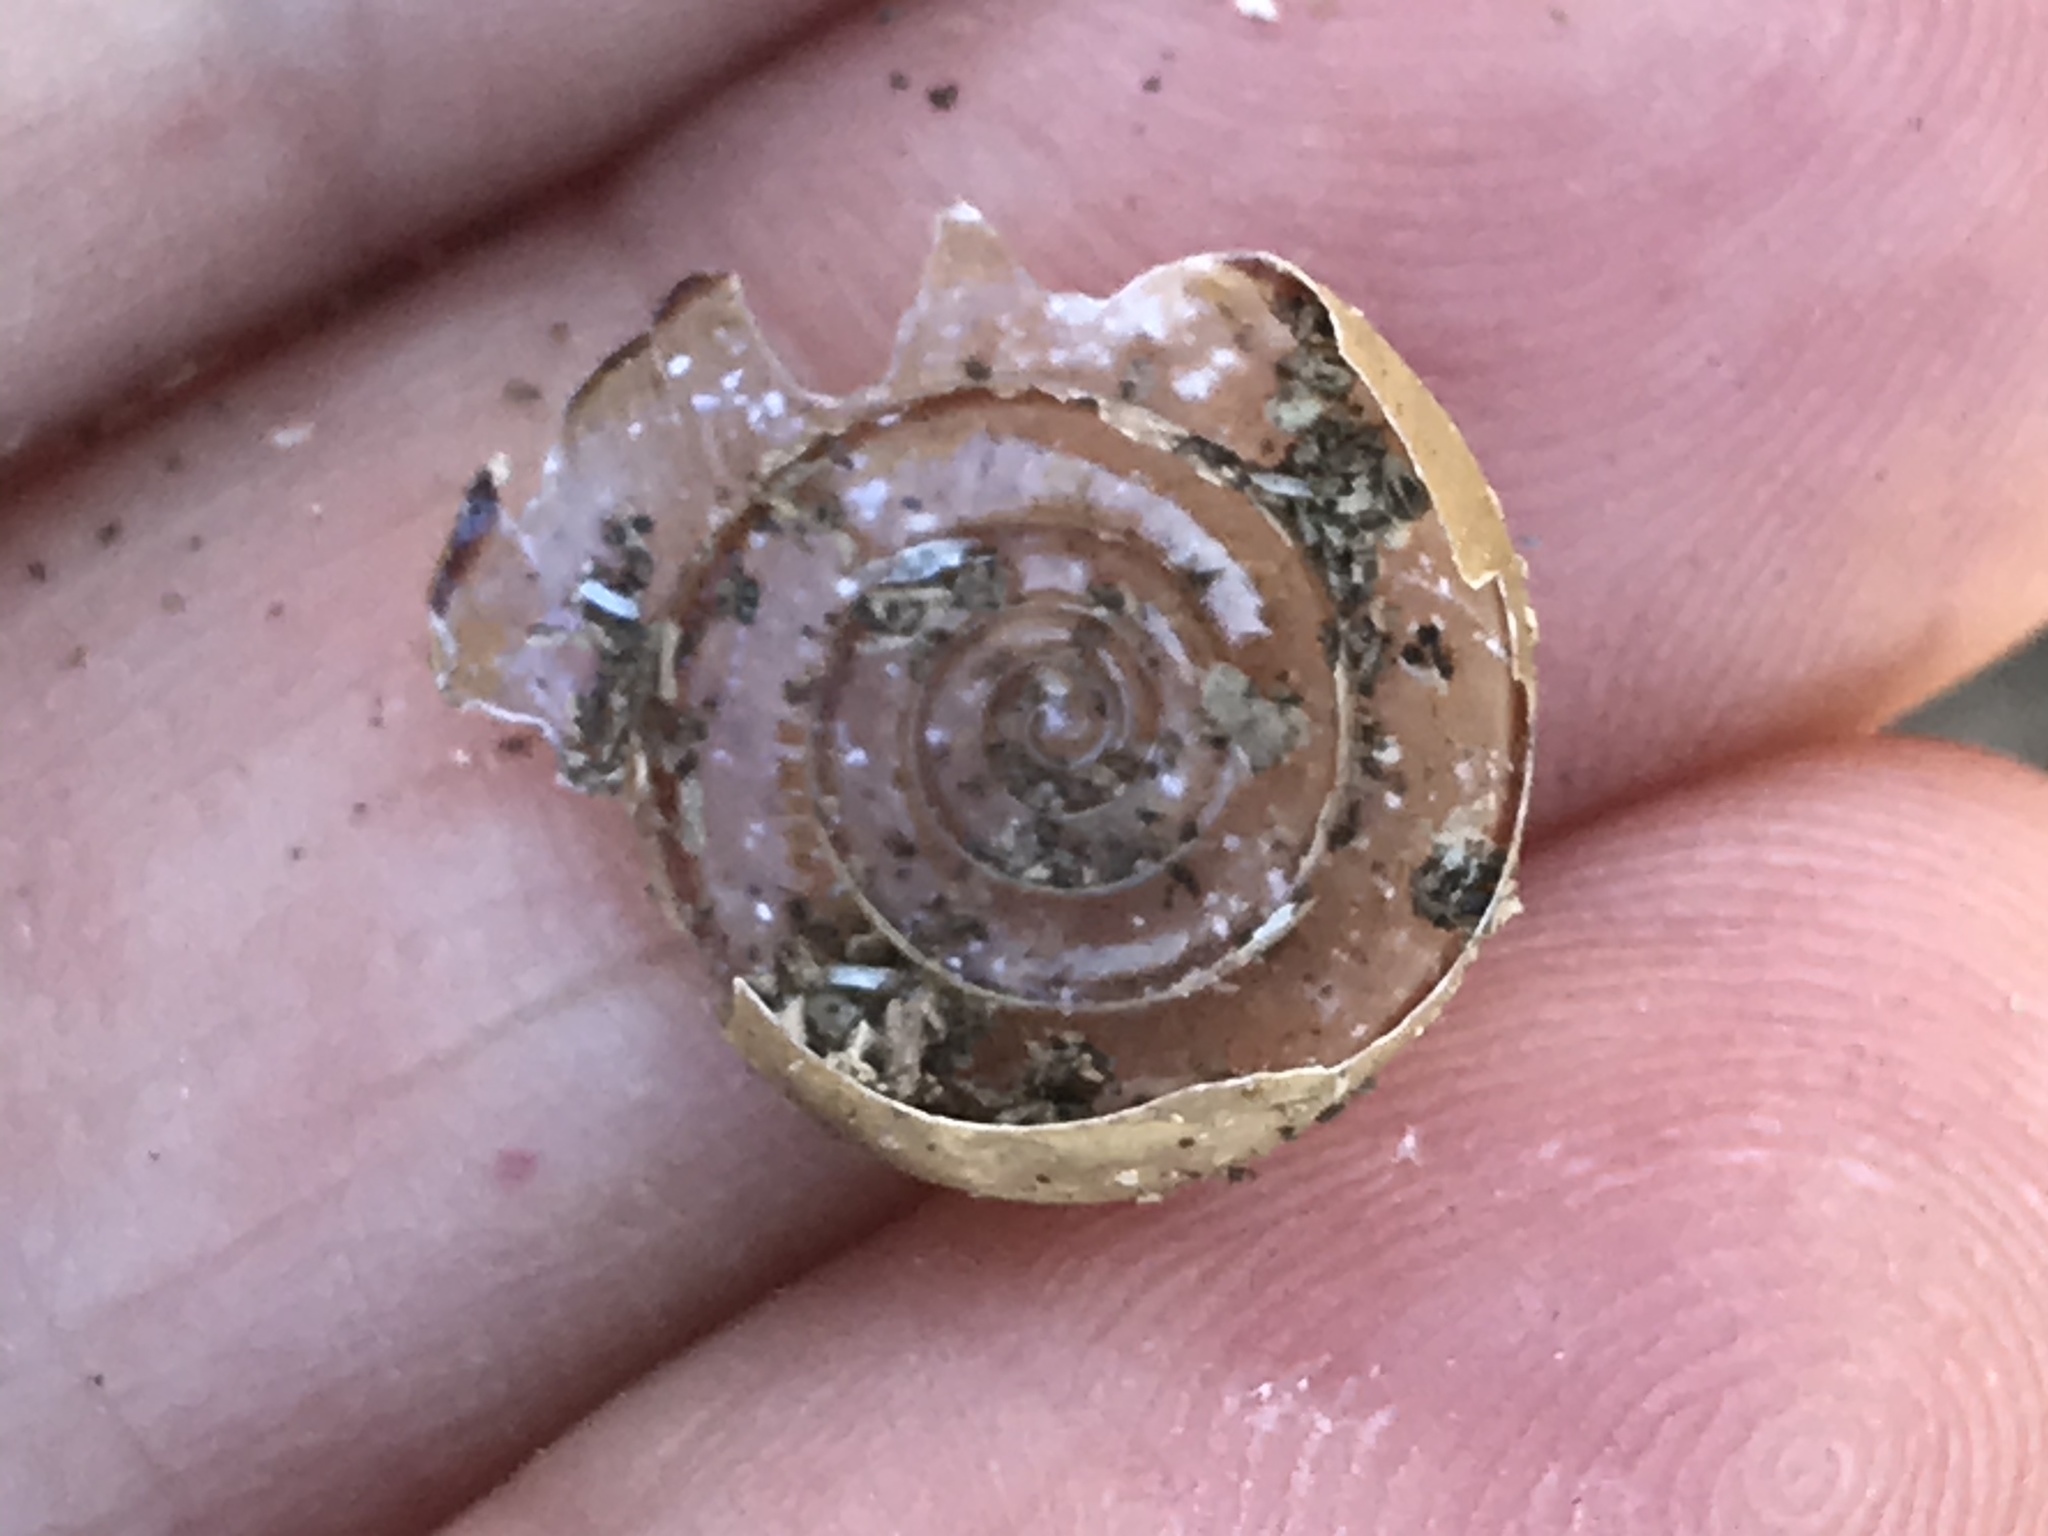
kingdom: Animalia
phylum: Mollusca
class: Gastropoda
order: Stylommatophora
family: Xanthonychidae
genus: Helminthoglypta
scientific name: Helminthoglypta traskii
